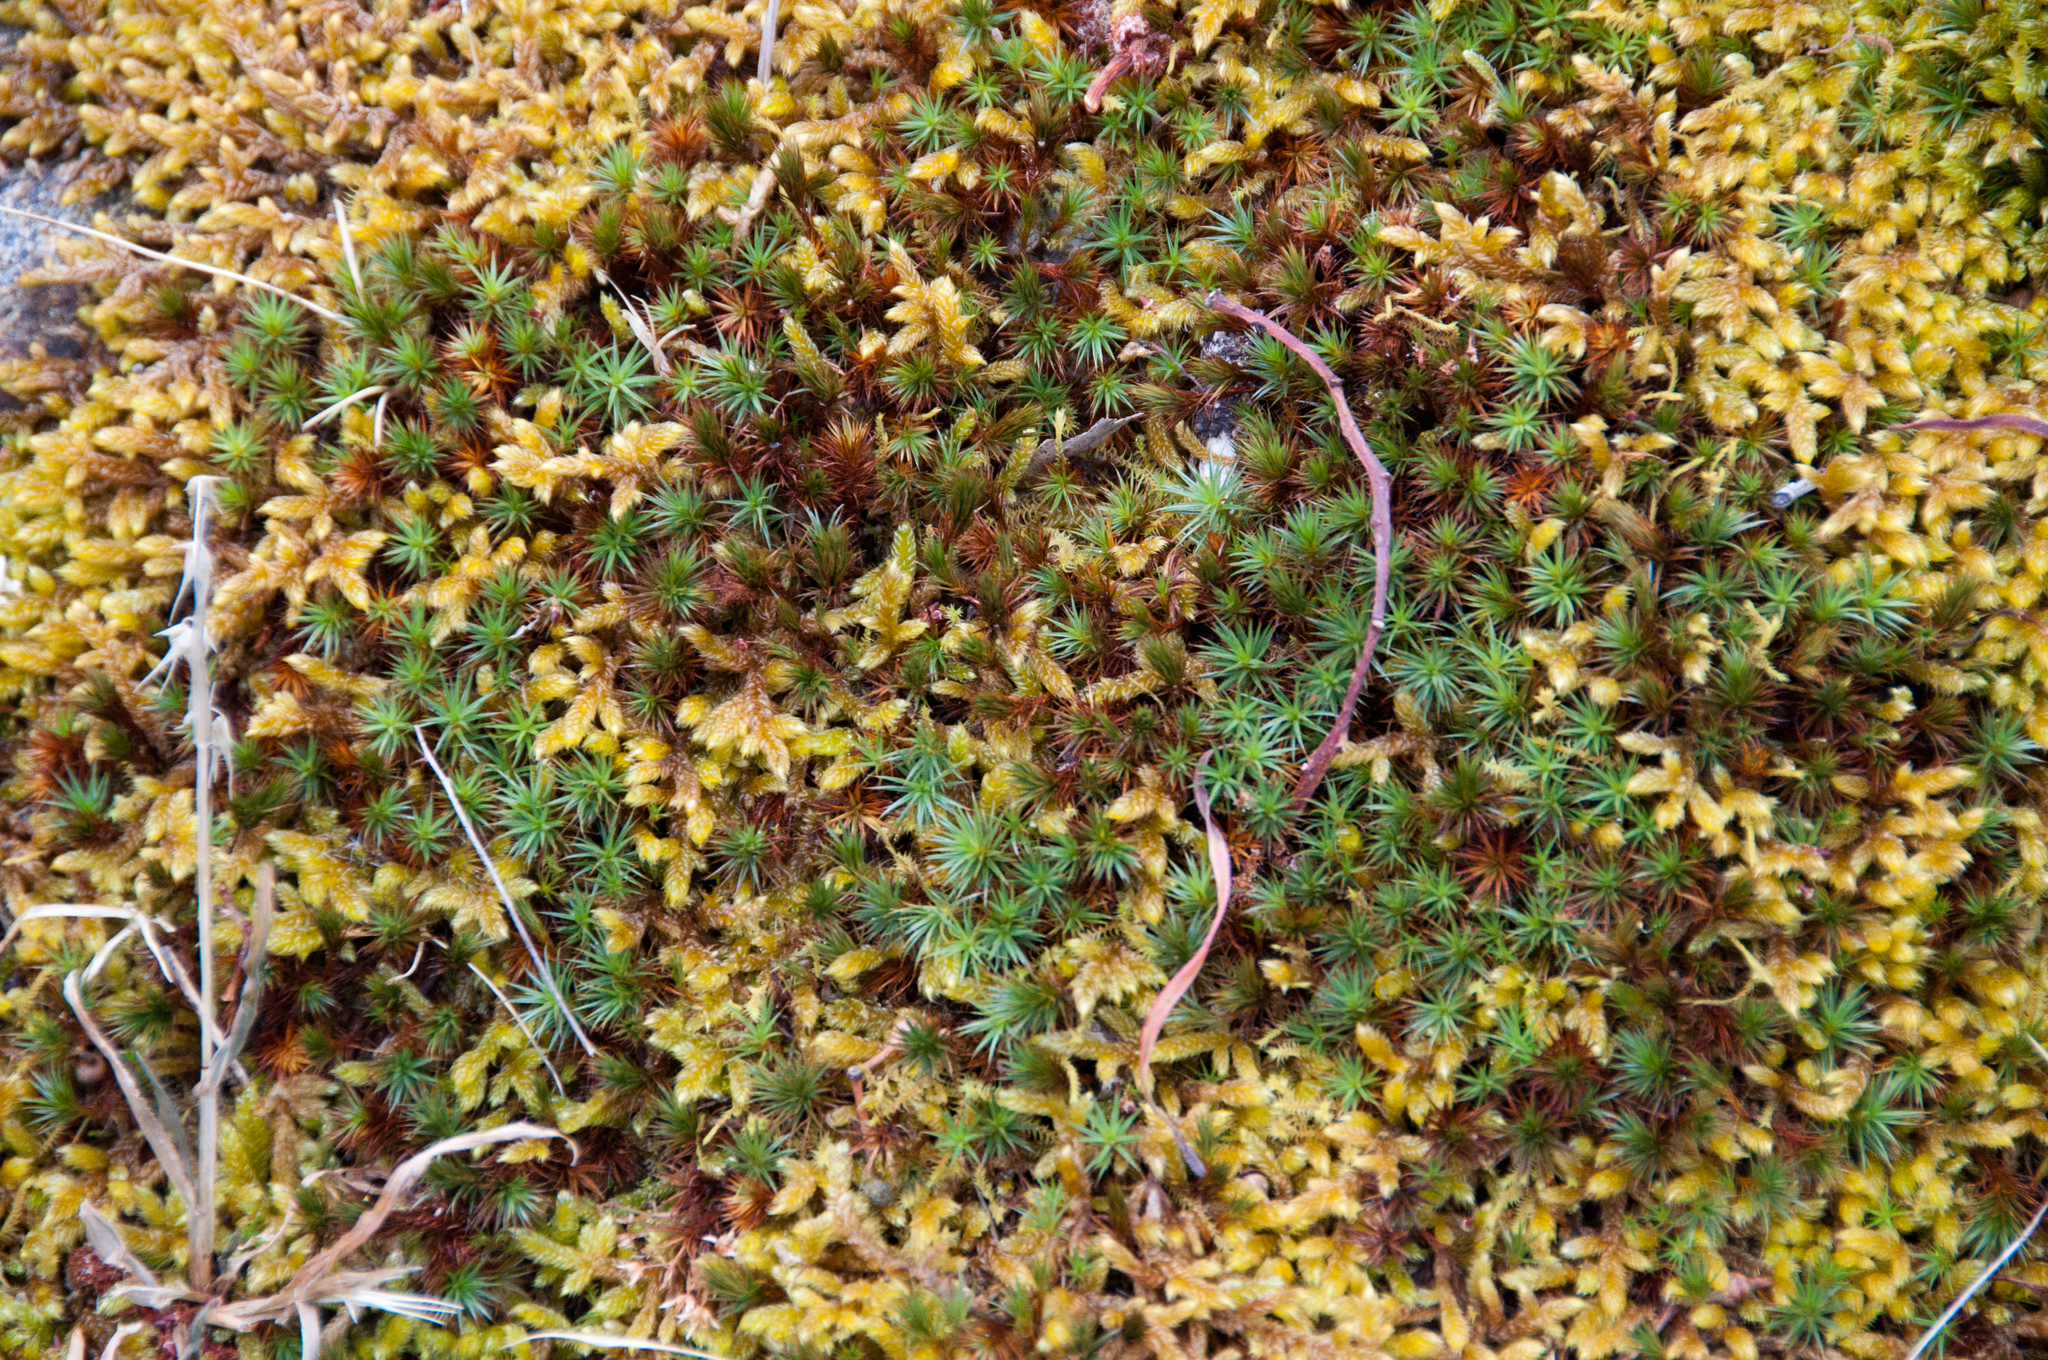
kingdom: Plantae
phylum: Bryophyta
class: Bryopsida
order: Hypnales
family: Hypnaceae
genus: Hypnum
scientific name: Hypnum cupressiforme
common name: Cypress-leaved plait-moss
